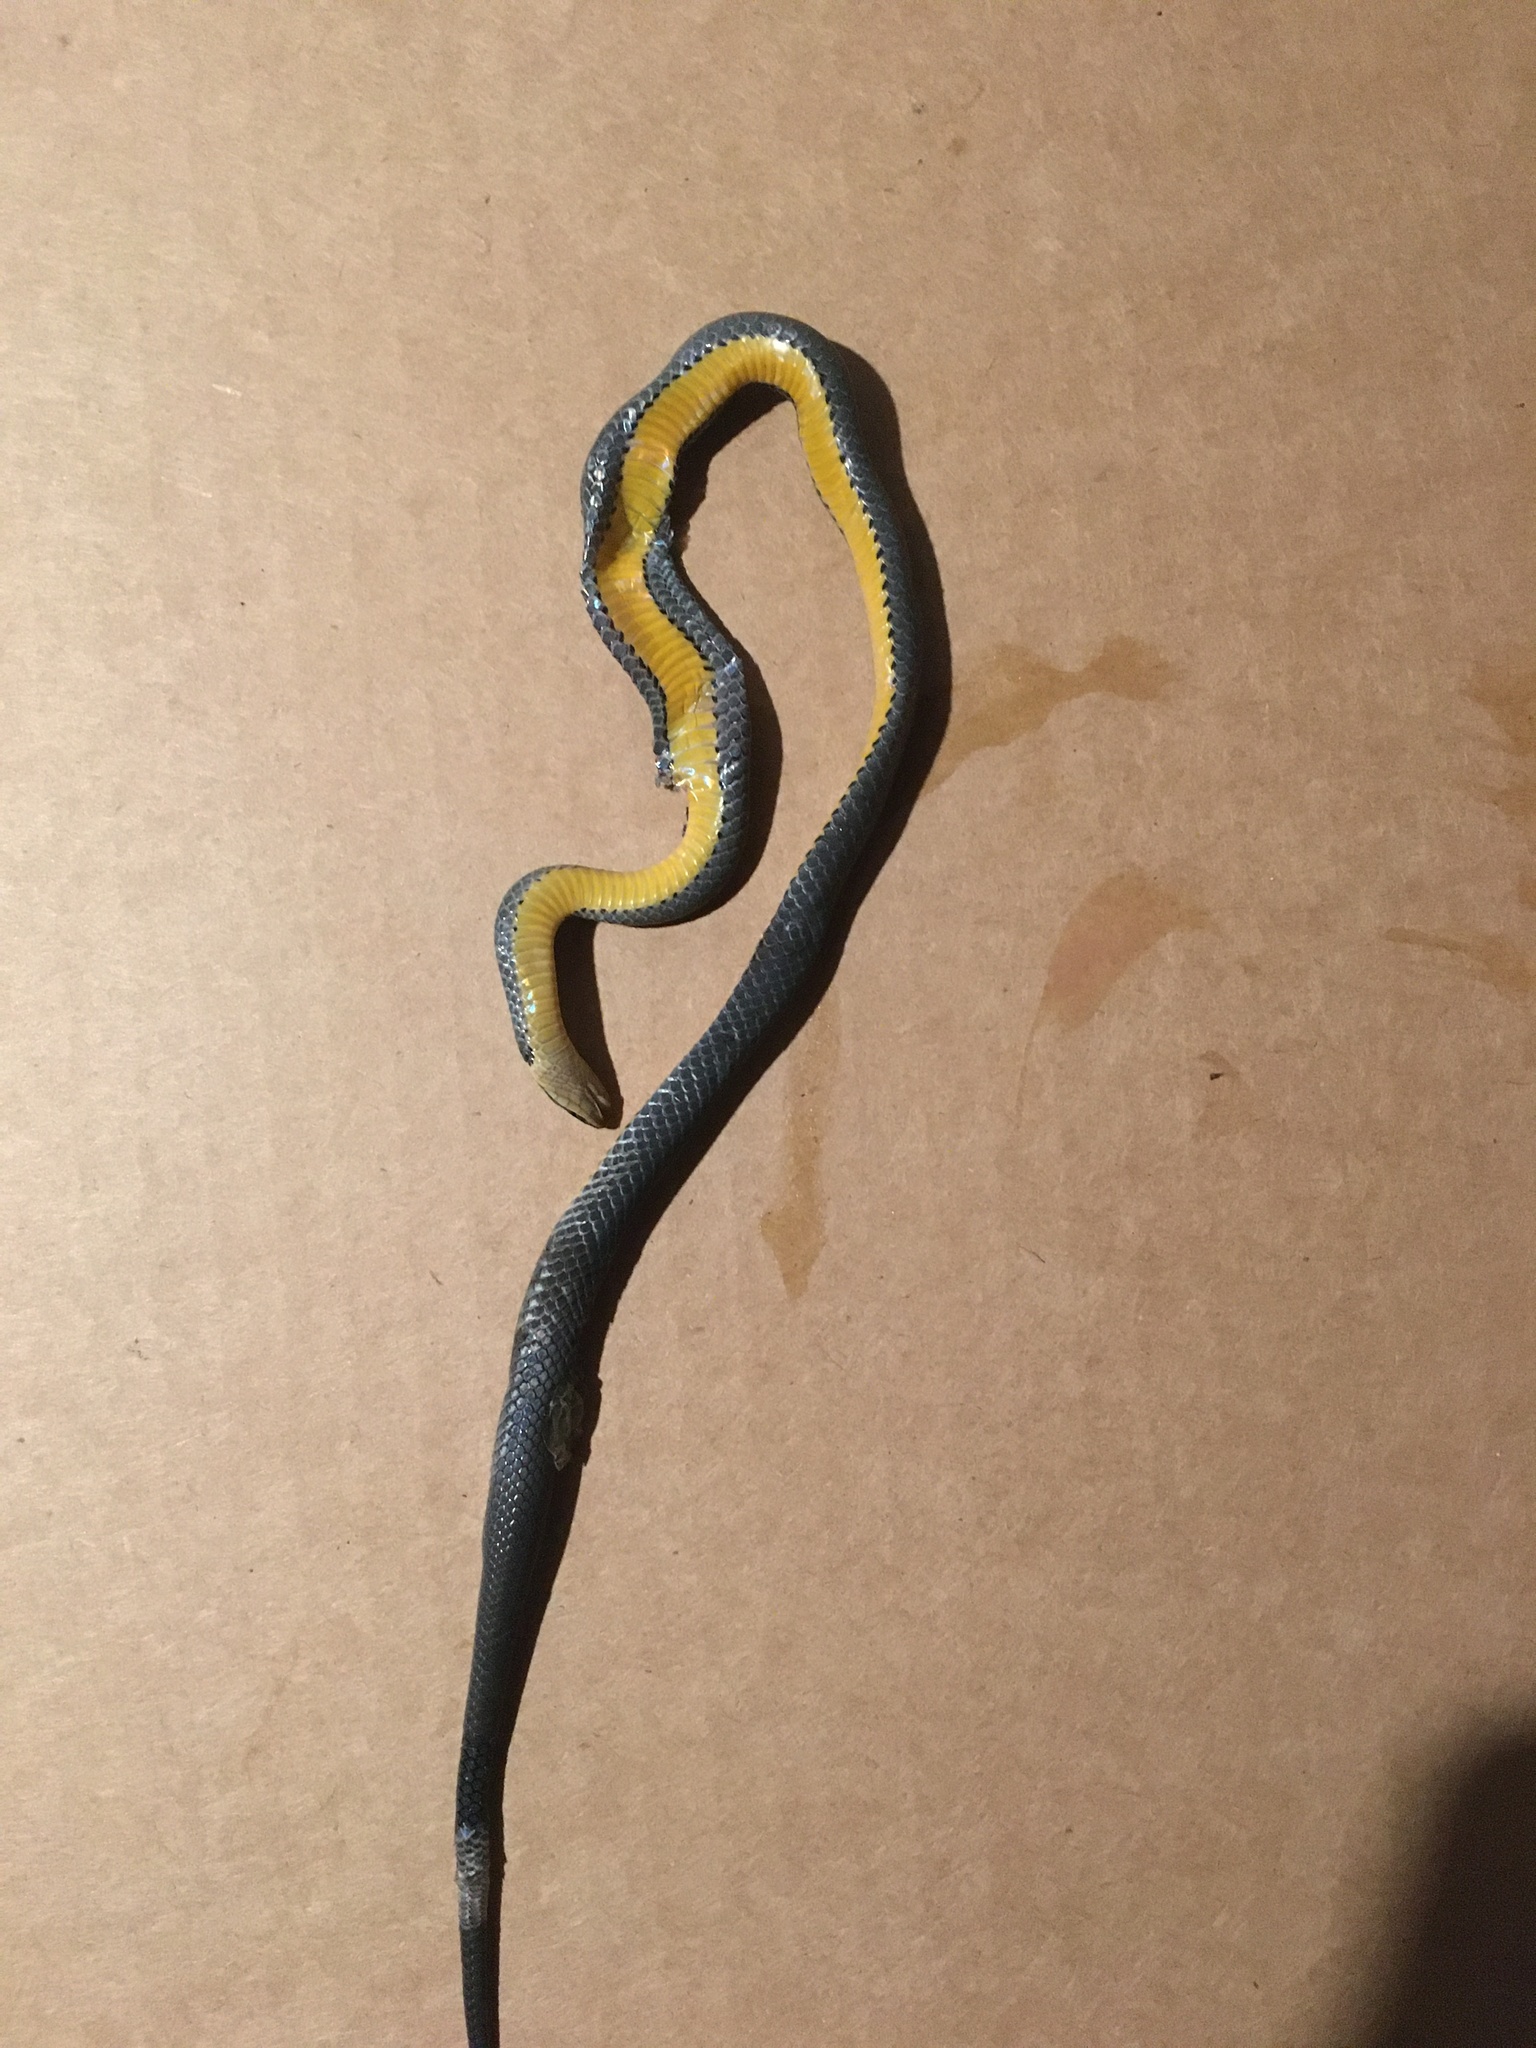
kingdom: Animalia
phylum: Chordata
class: Squamata
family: Colubridae
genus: Diadophis
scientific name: Diadophis punctatus
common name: Ringneck snake
